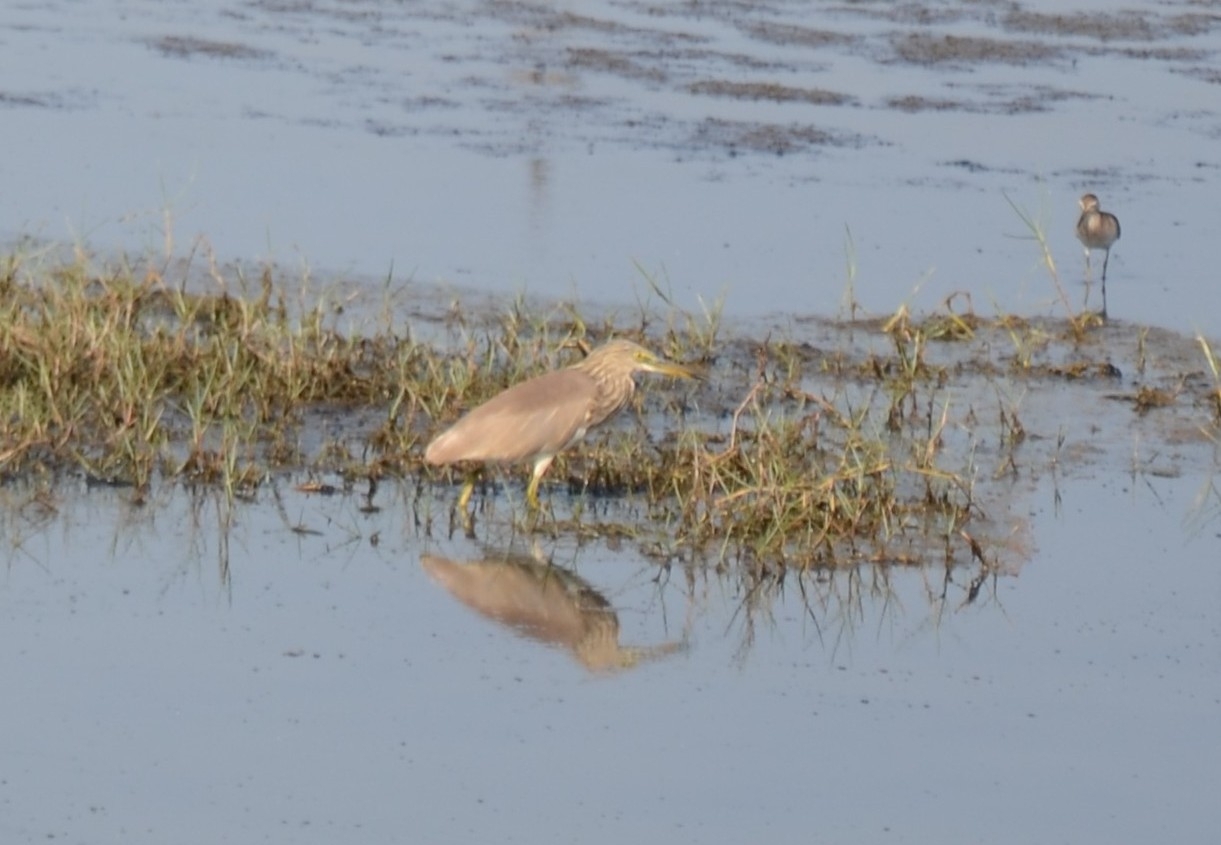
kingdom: Animalia
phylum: Chordata
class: Aves
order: Pelecaniformes
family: Ardeidae
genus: Ardeola
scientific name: Ardeola grayii
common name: Indian pond heron
